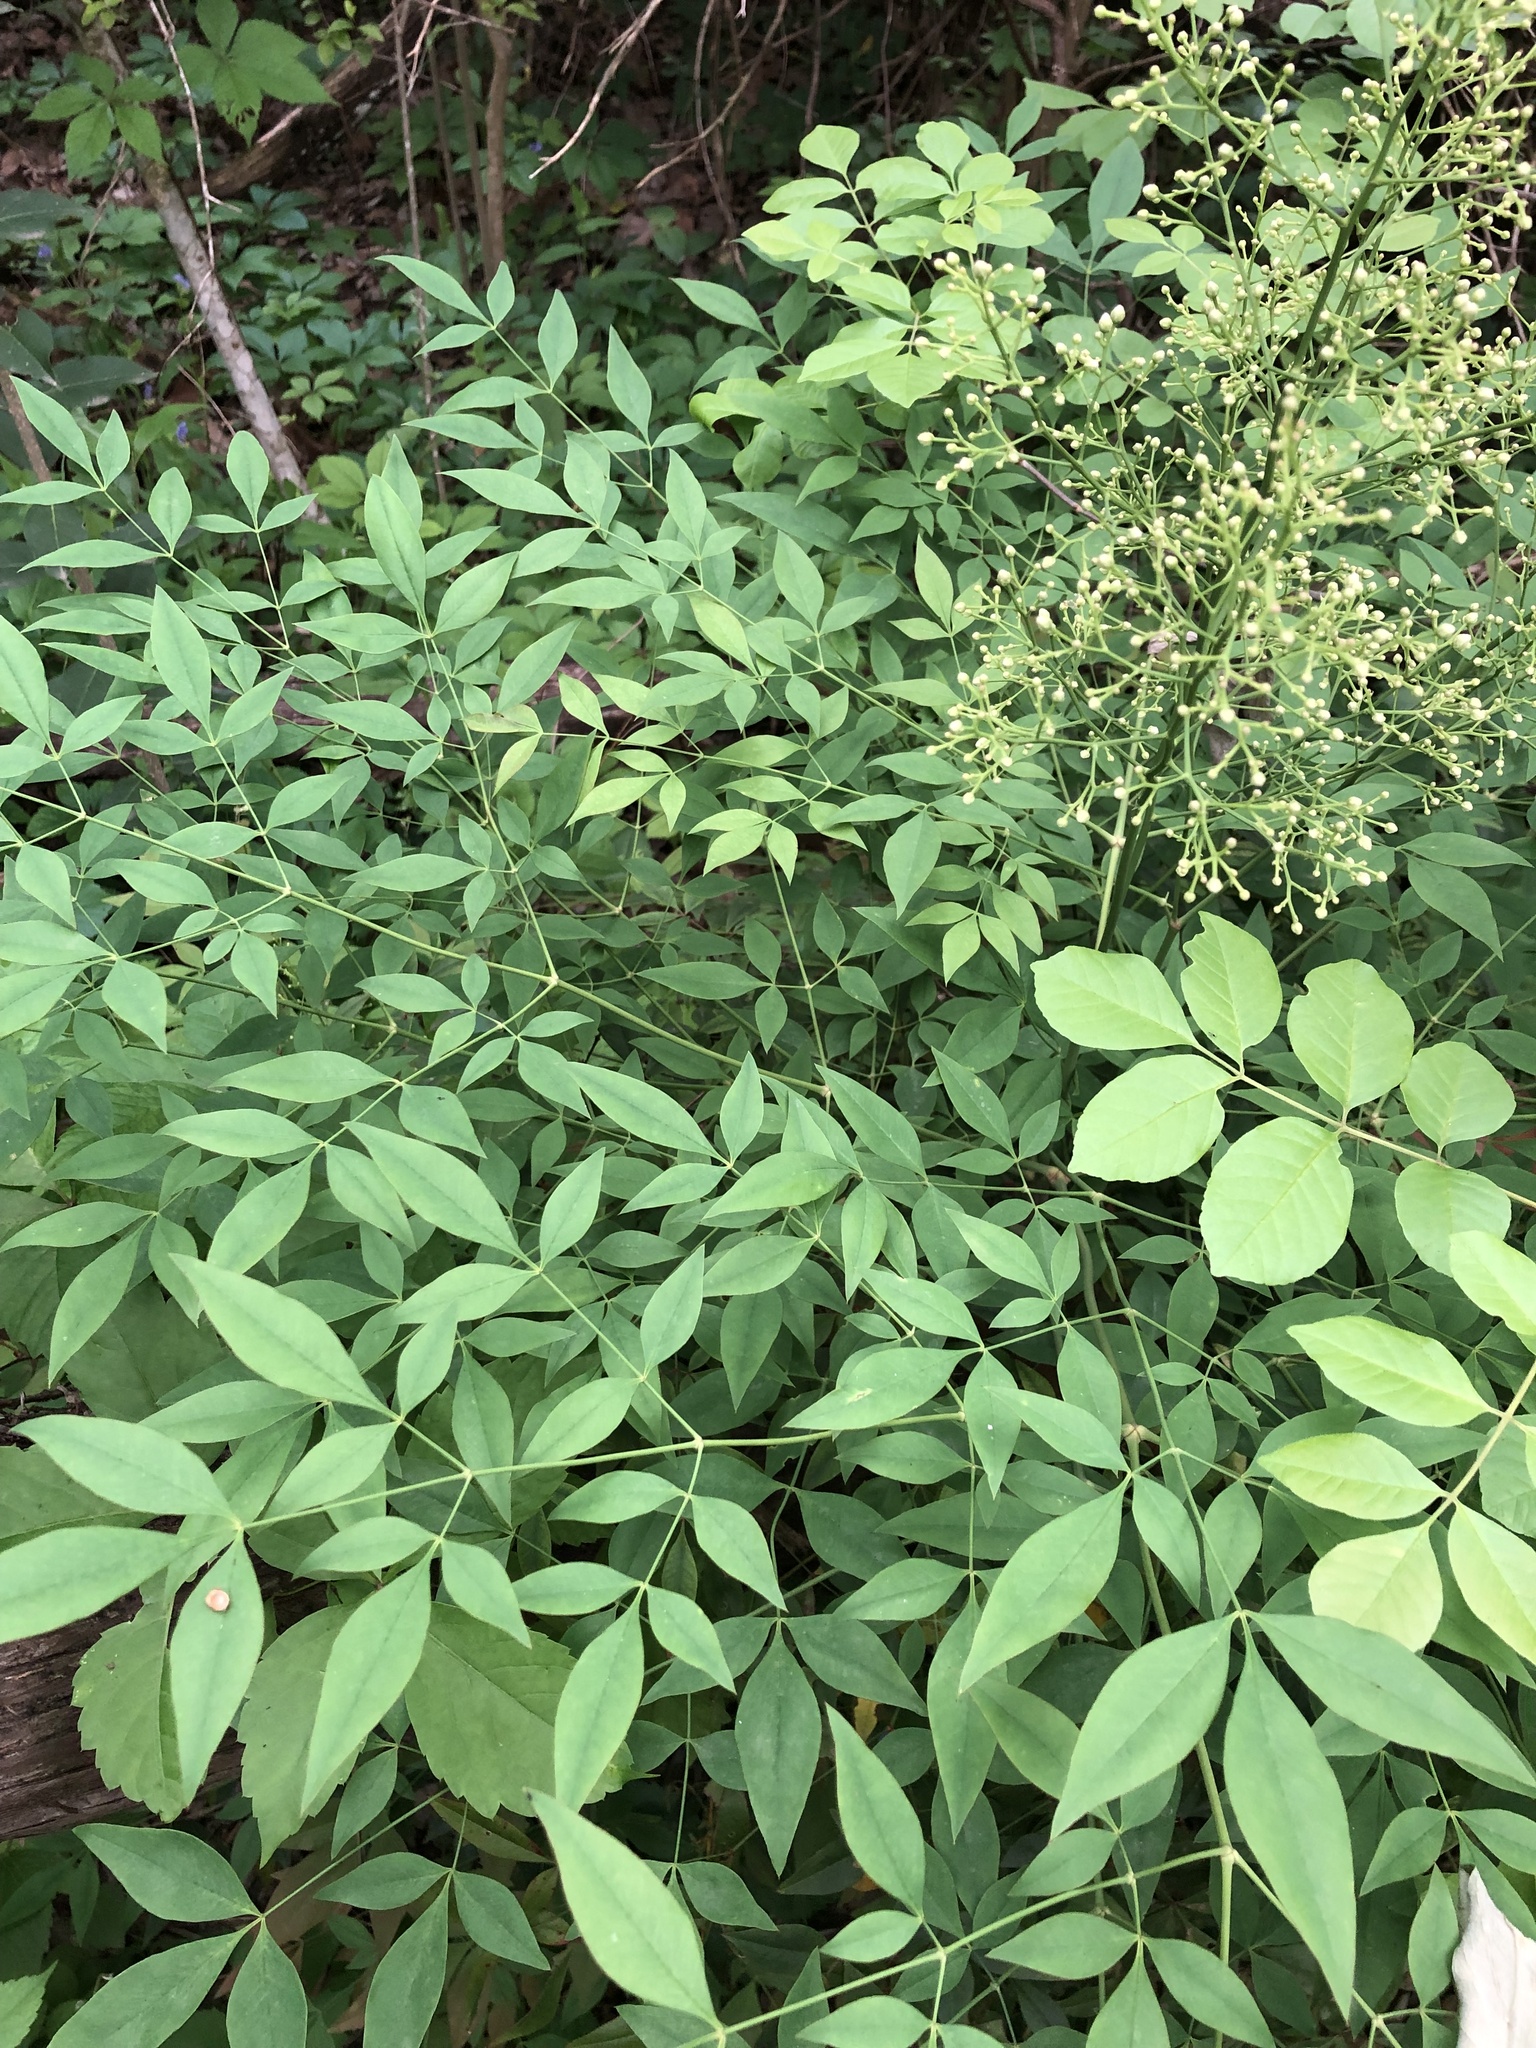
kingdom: Plantae
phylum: Tracheophyta
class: Magnoliopsida
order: Ranunculales
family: Berberidaceae
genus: Nandina
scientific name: Nandina domestica
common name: Sacred bamboo
